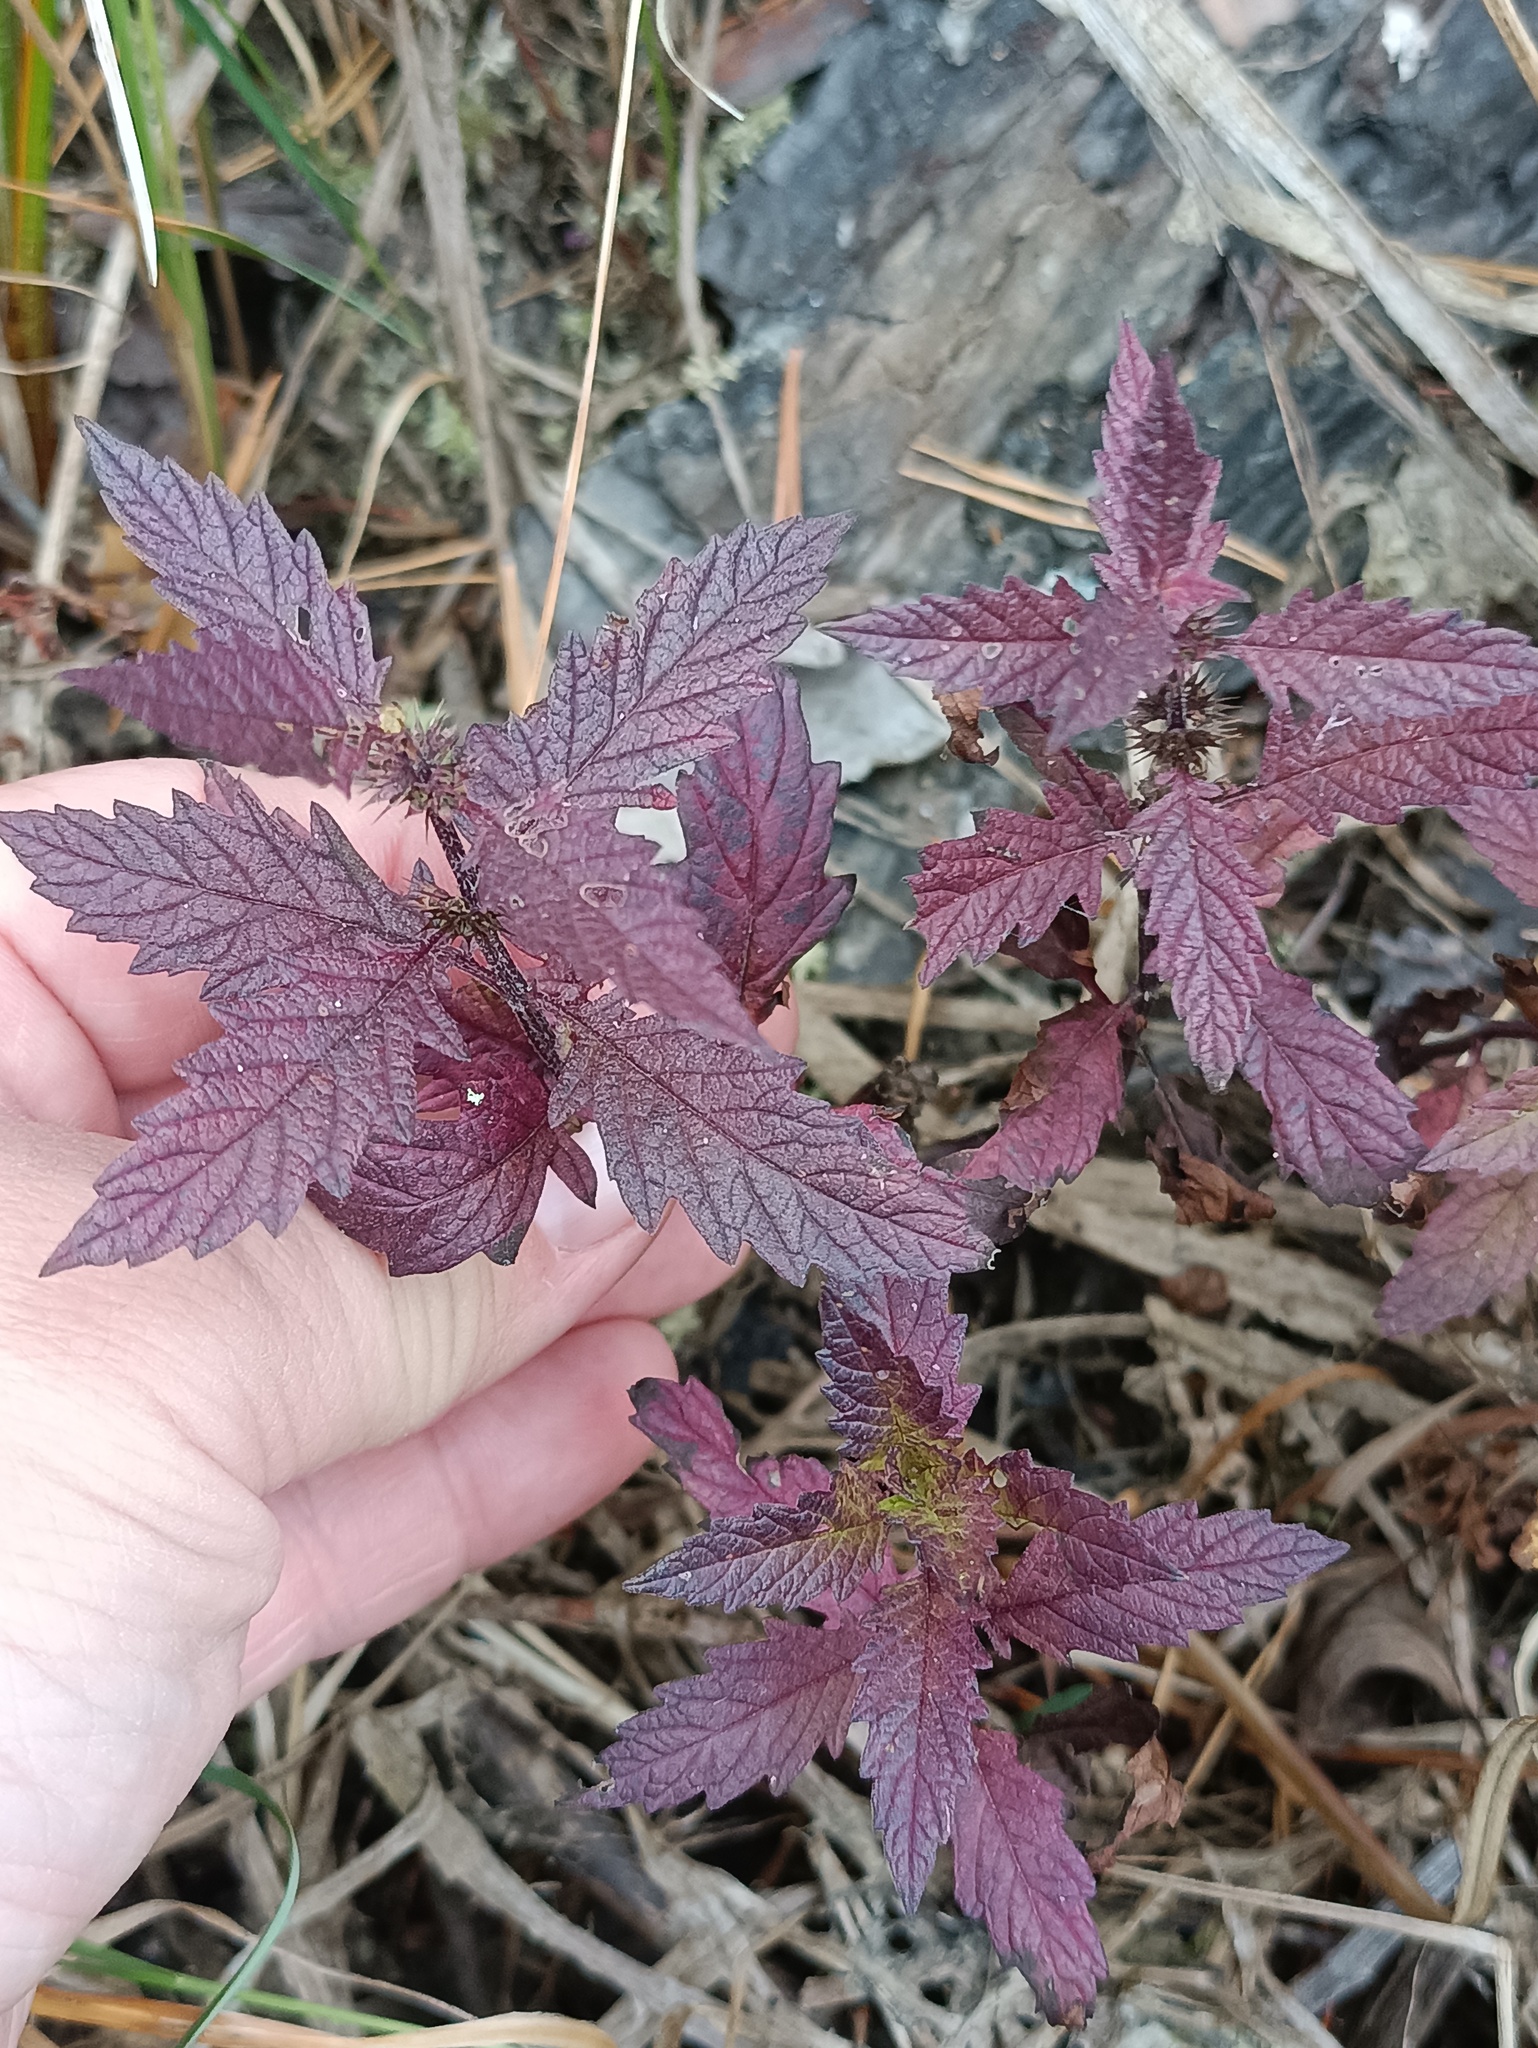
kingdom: Plantae
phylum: Tracheophyta
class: Magnoliopsida
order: Lamiales
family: Lamiaceae
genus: Lycopus
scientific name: Lycopus europaeus
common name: European bugleweed
